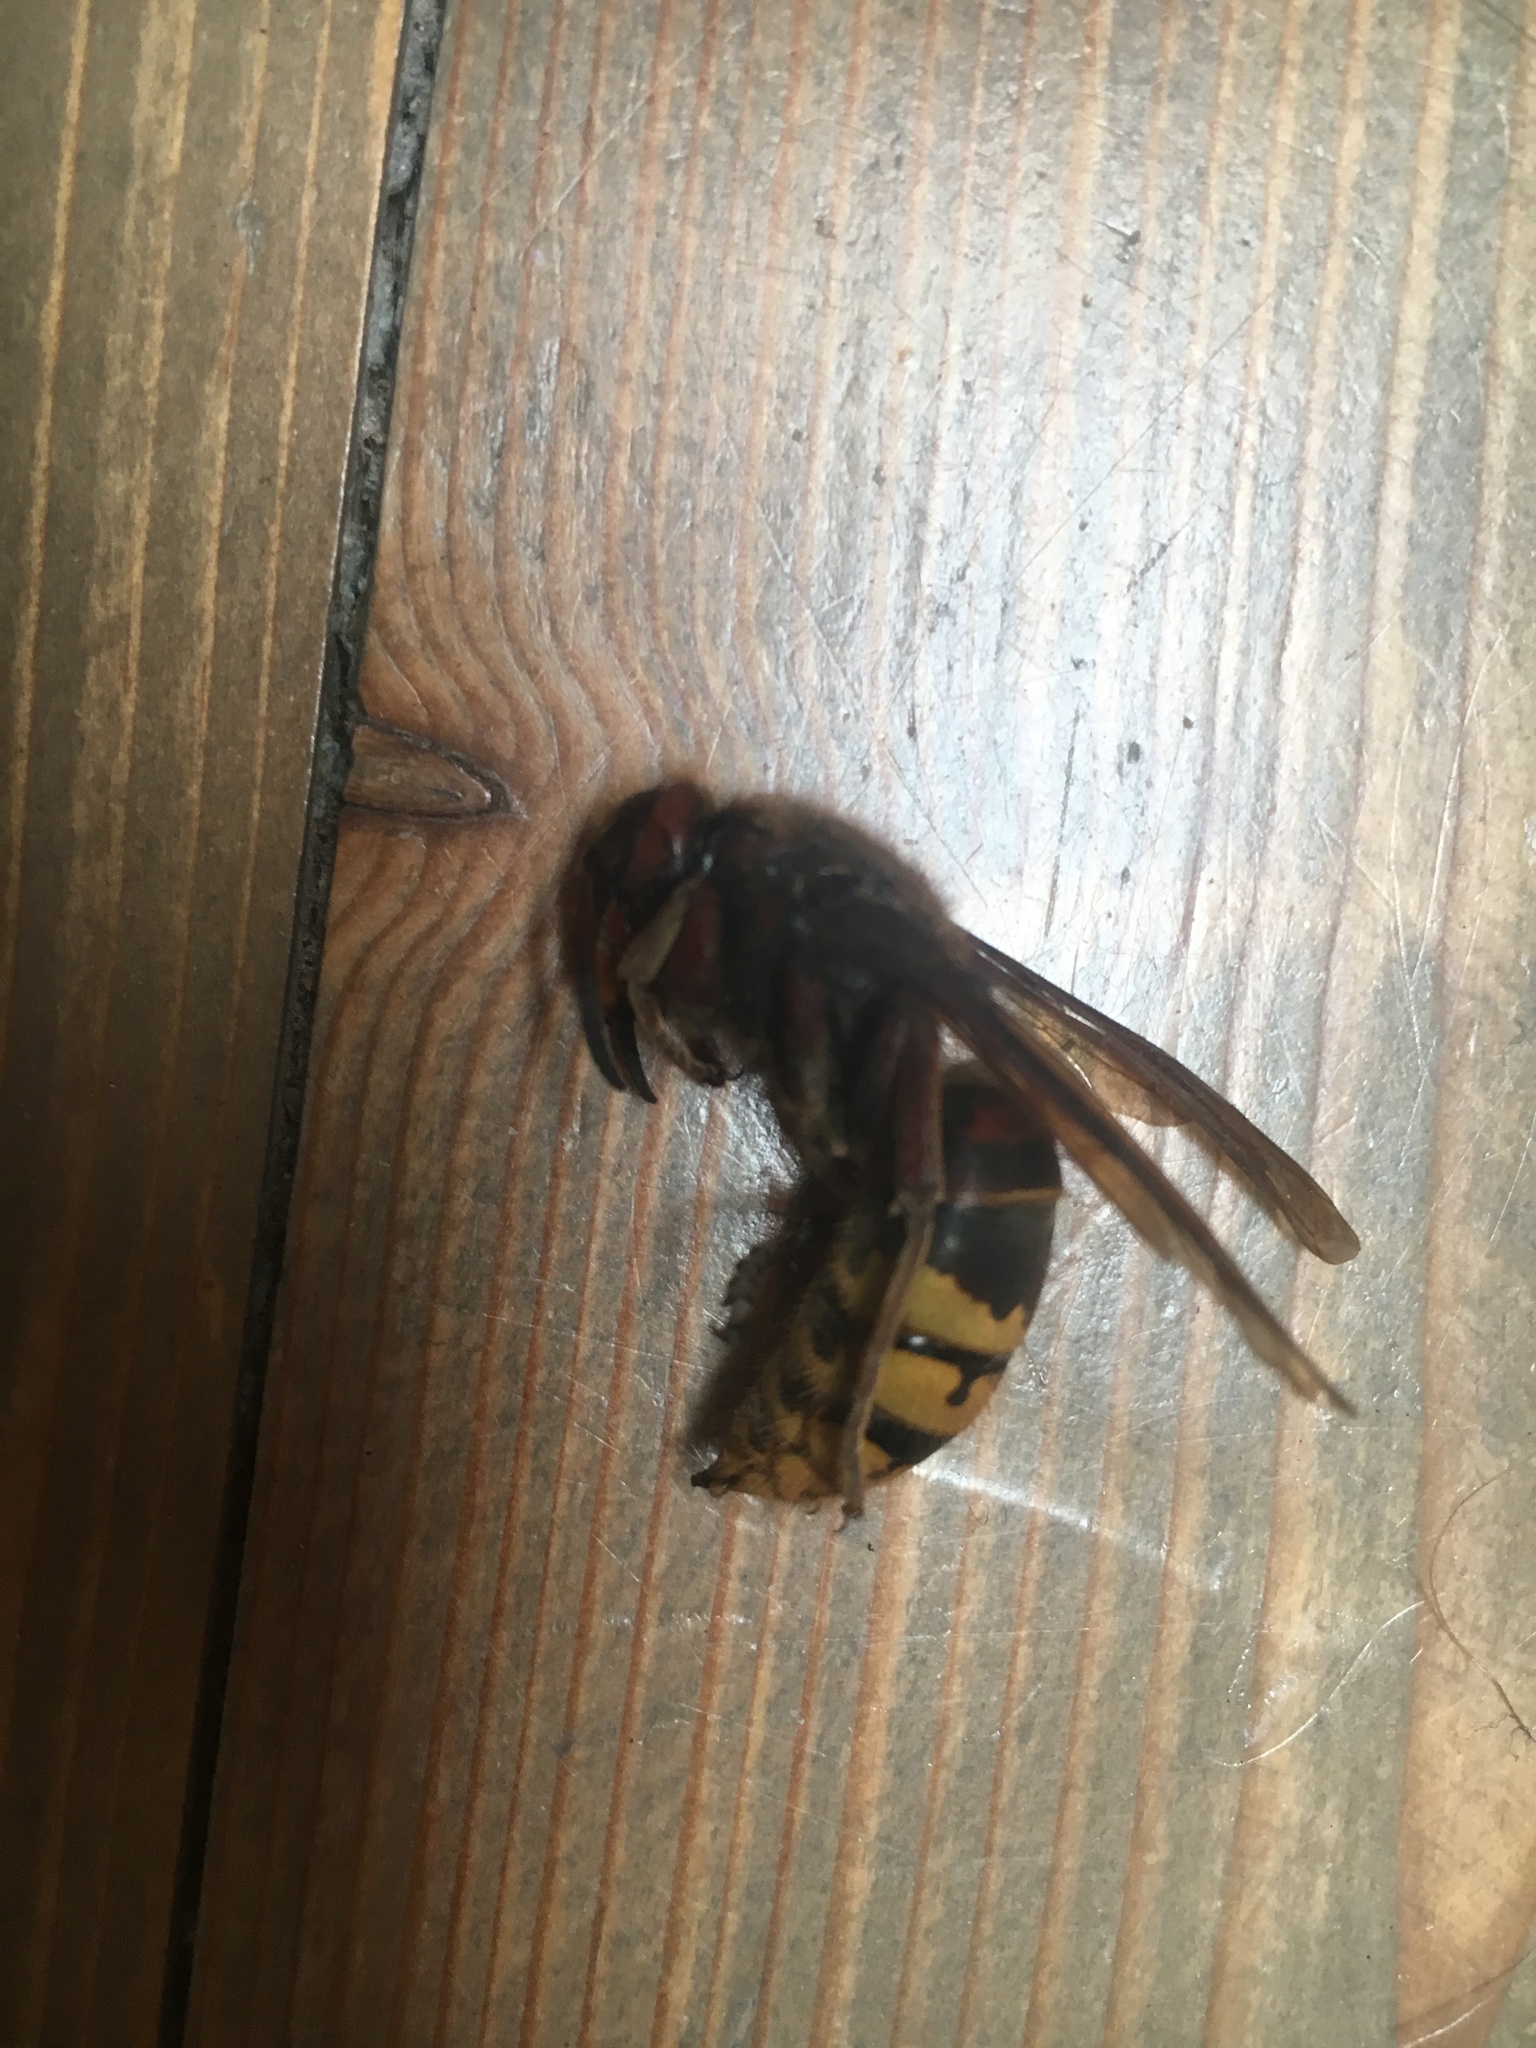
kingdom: Animalia
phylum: Arthropoda
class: Insecta
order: Hymenoptera
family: Vespidae
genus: Vespa
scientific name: Vespa crabro
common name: Hornet
